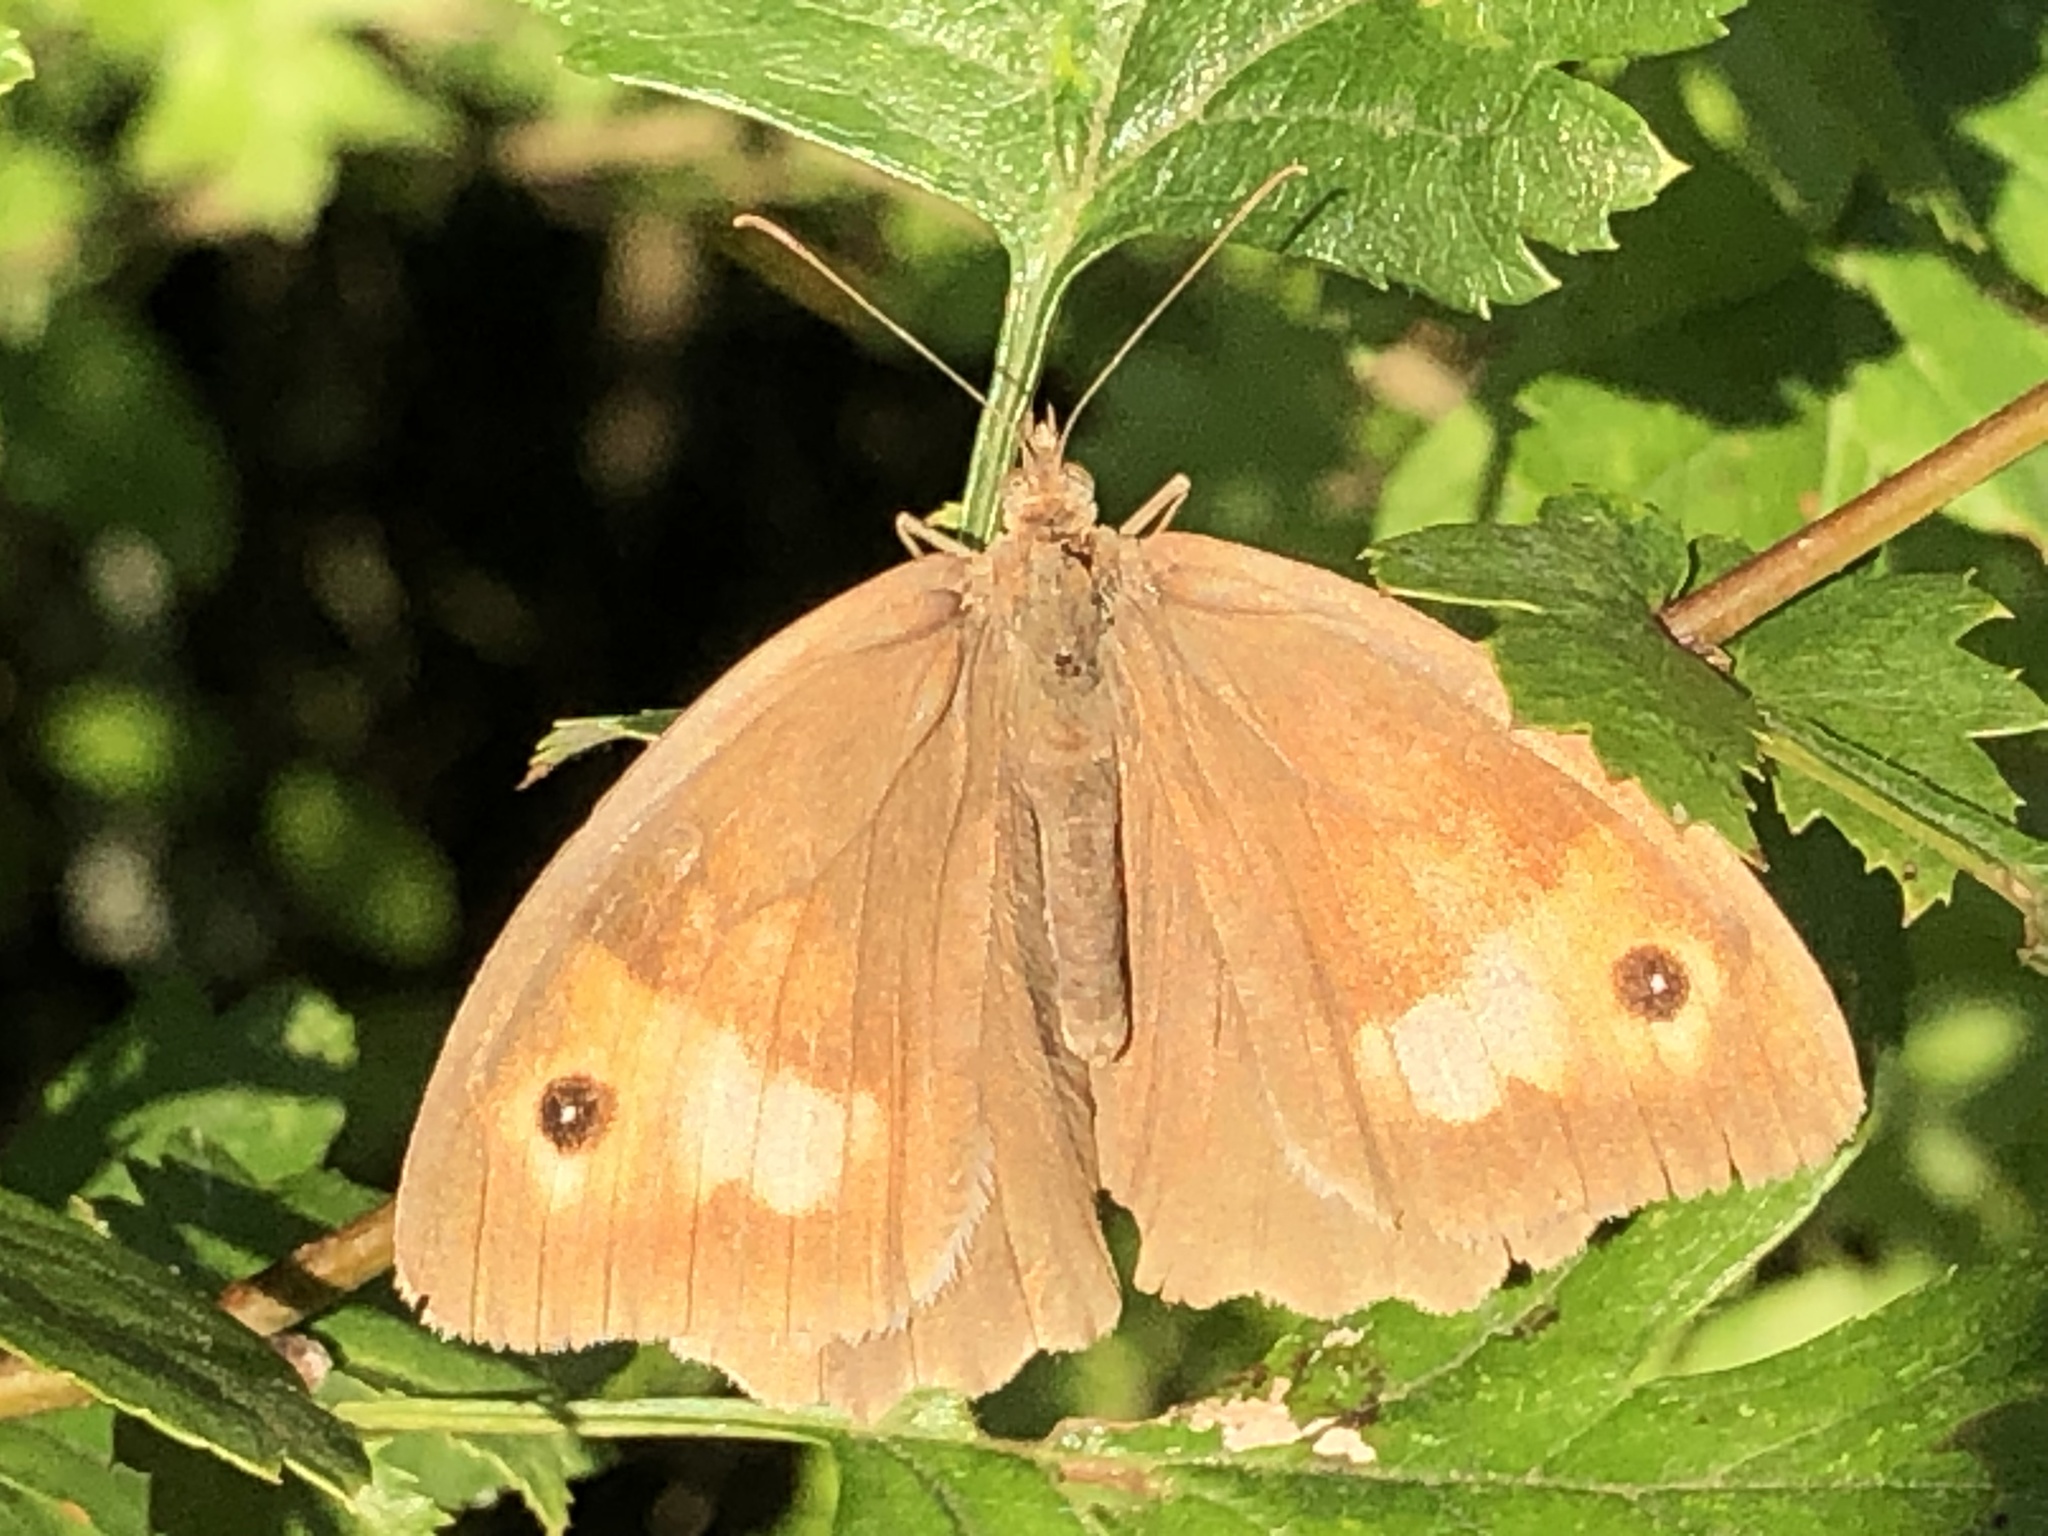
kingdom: Animalia
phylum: Arthropoda
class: Insecta
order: Lepidoptera
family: Nymphalidae
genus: Maniola
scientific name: Maniola jurtina
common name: Meadow brown
